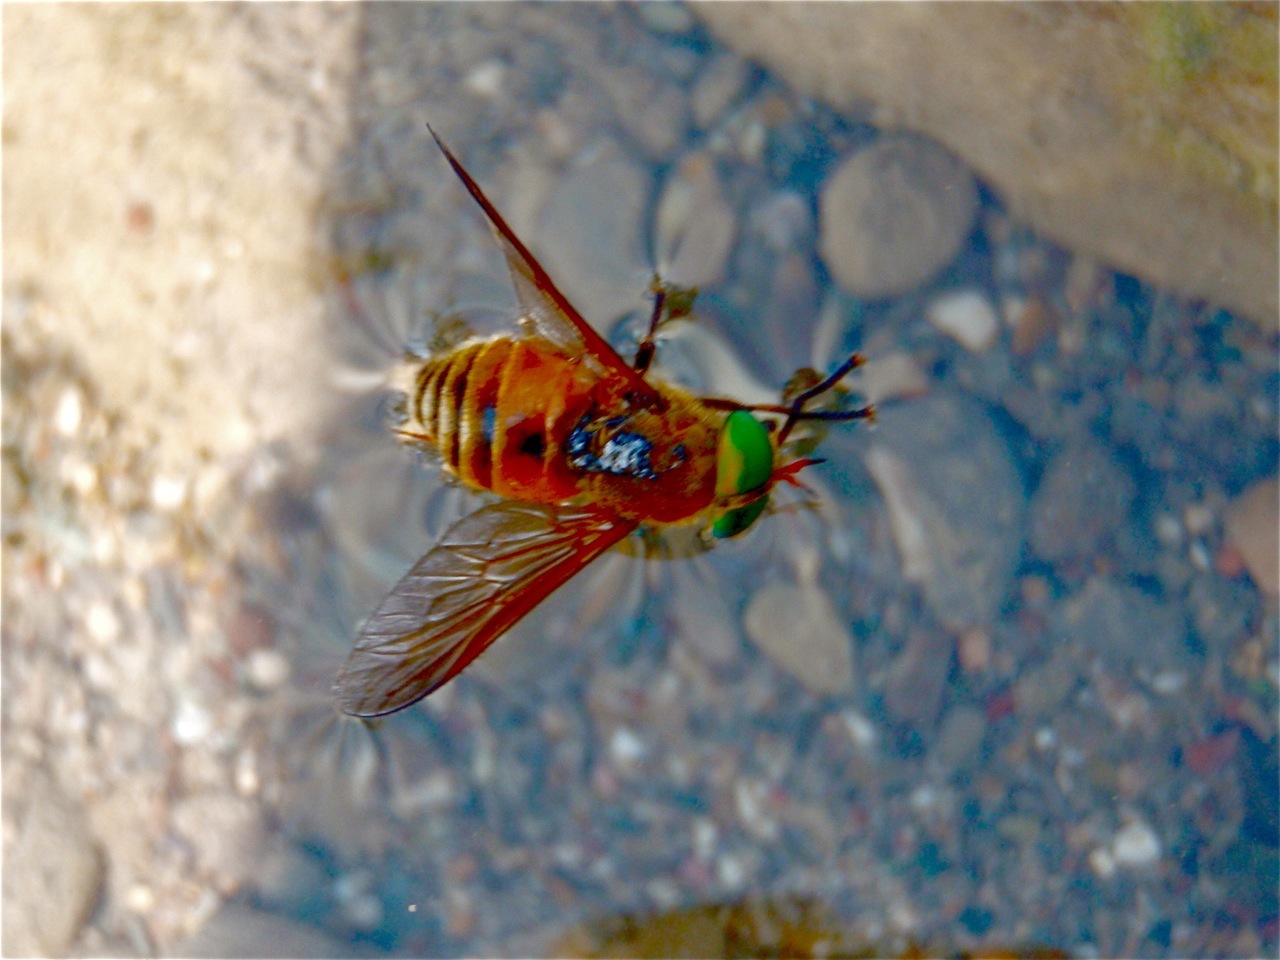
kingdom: Animalia
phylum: Arthropoda
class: Insecta
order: Diptera
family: Tabanidae
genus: Philipomyia
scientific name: Philipomyia
